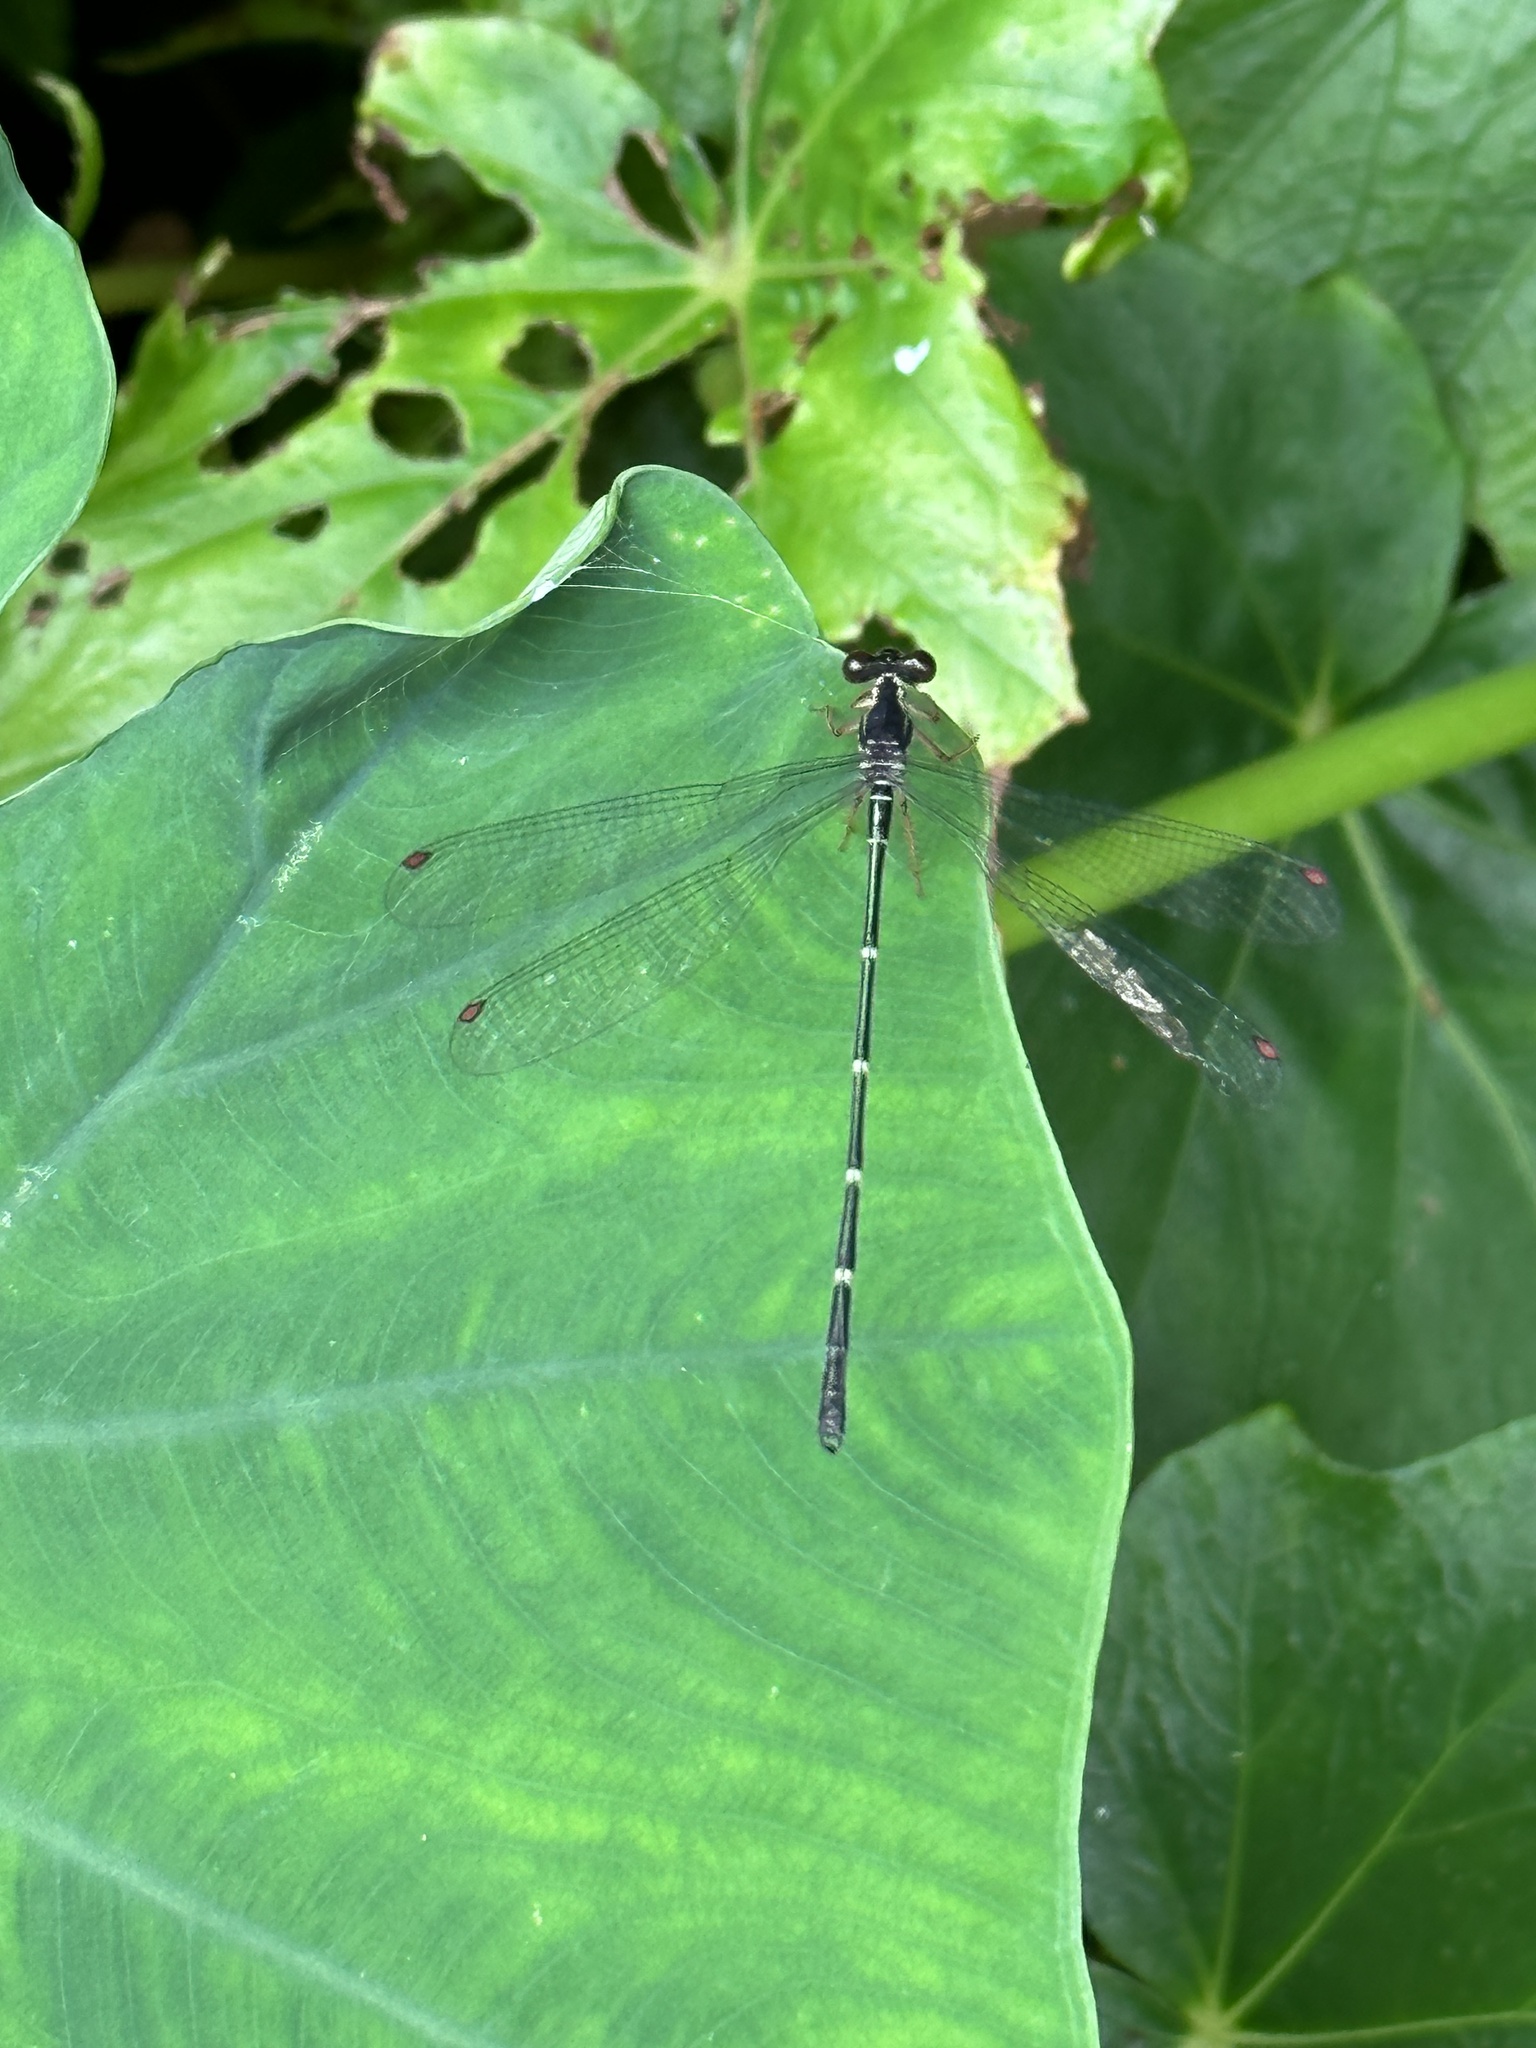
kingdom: Animalia
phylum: Arthropoda
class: Insecta
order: Odonata
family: Megapodagrionidae
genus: Rhipidolestes
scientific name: Rhipidolestes aculeatus
